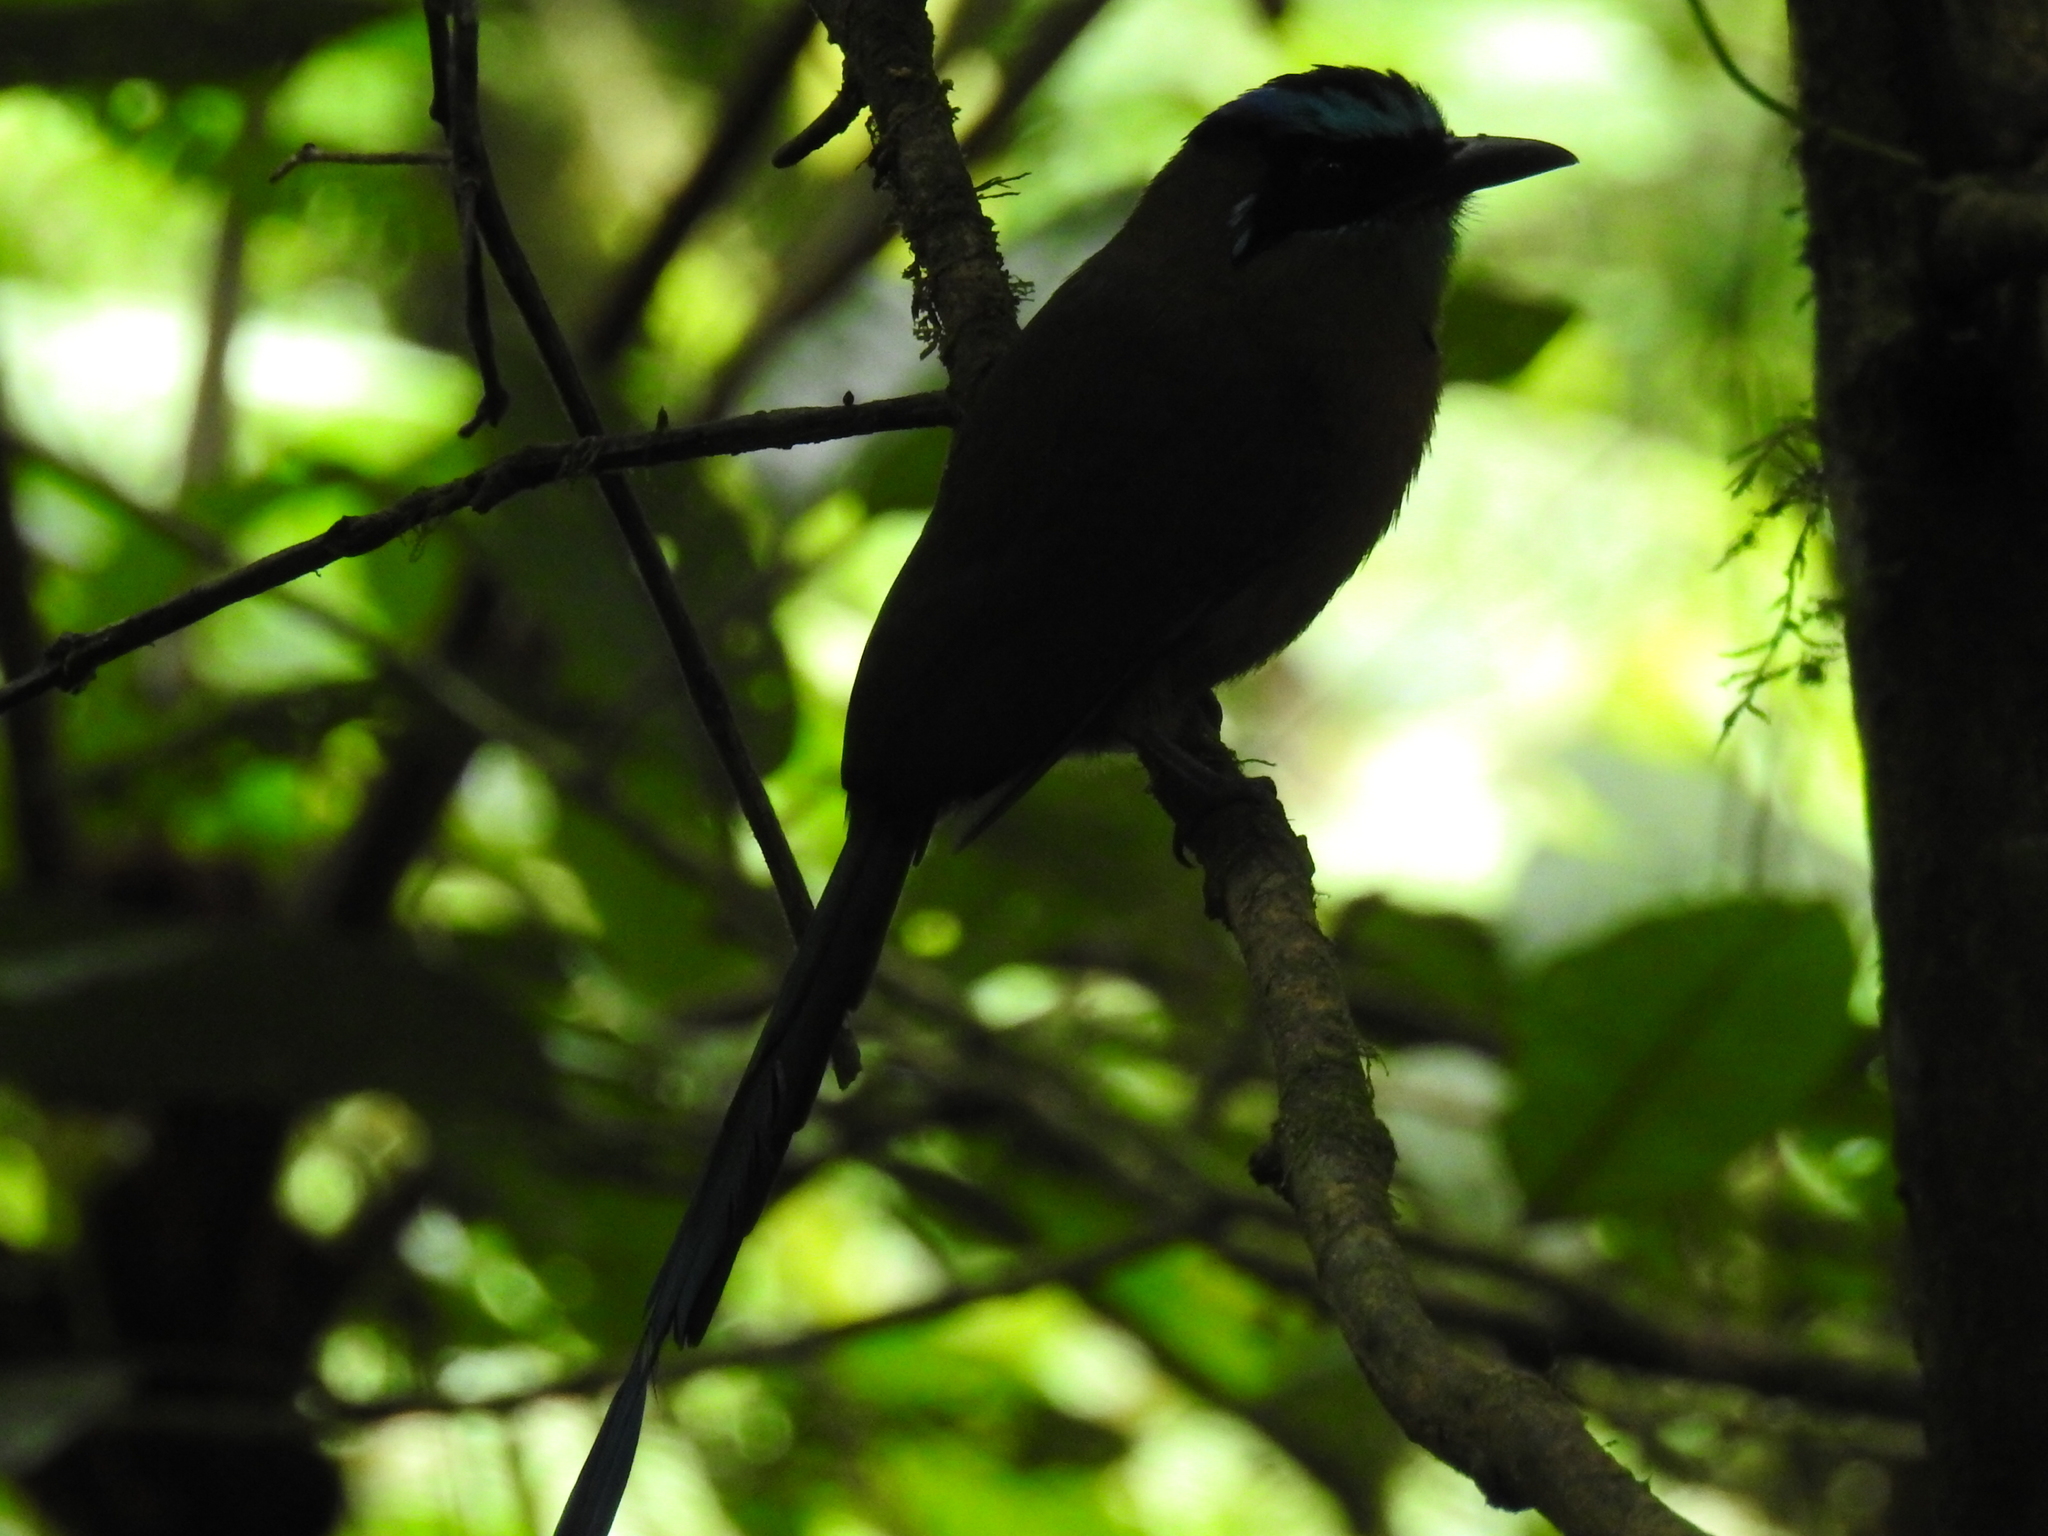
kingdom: Animalia
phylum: Chordata
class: Aves
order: Coraciiformes
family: Momotidae
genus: Momotus
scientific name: Momotus lessonii
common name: Lesson's motmot
